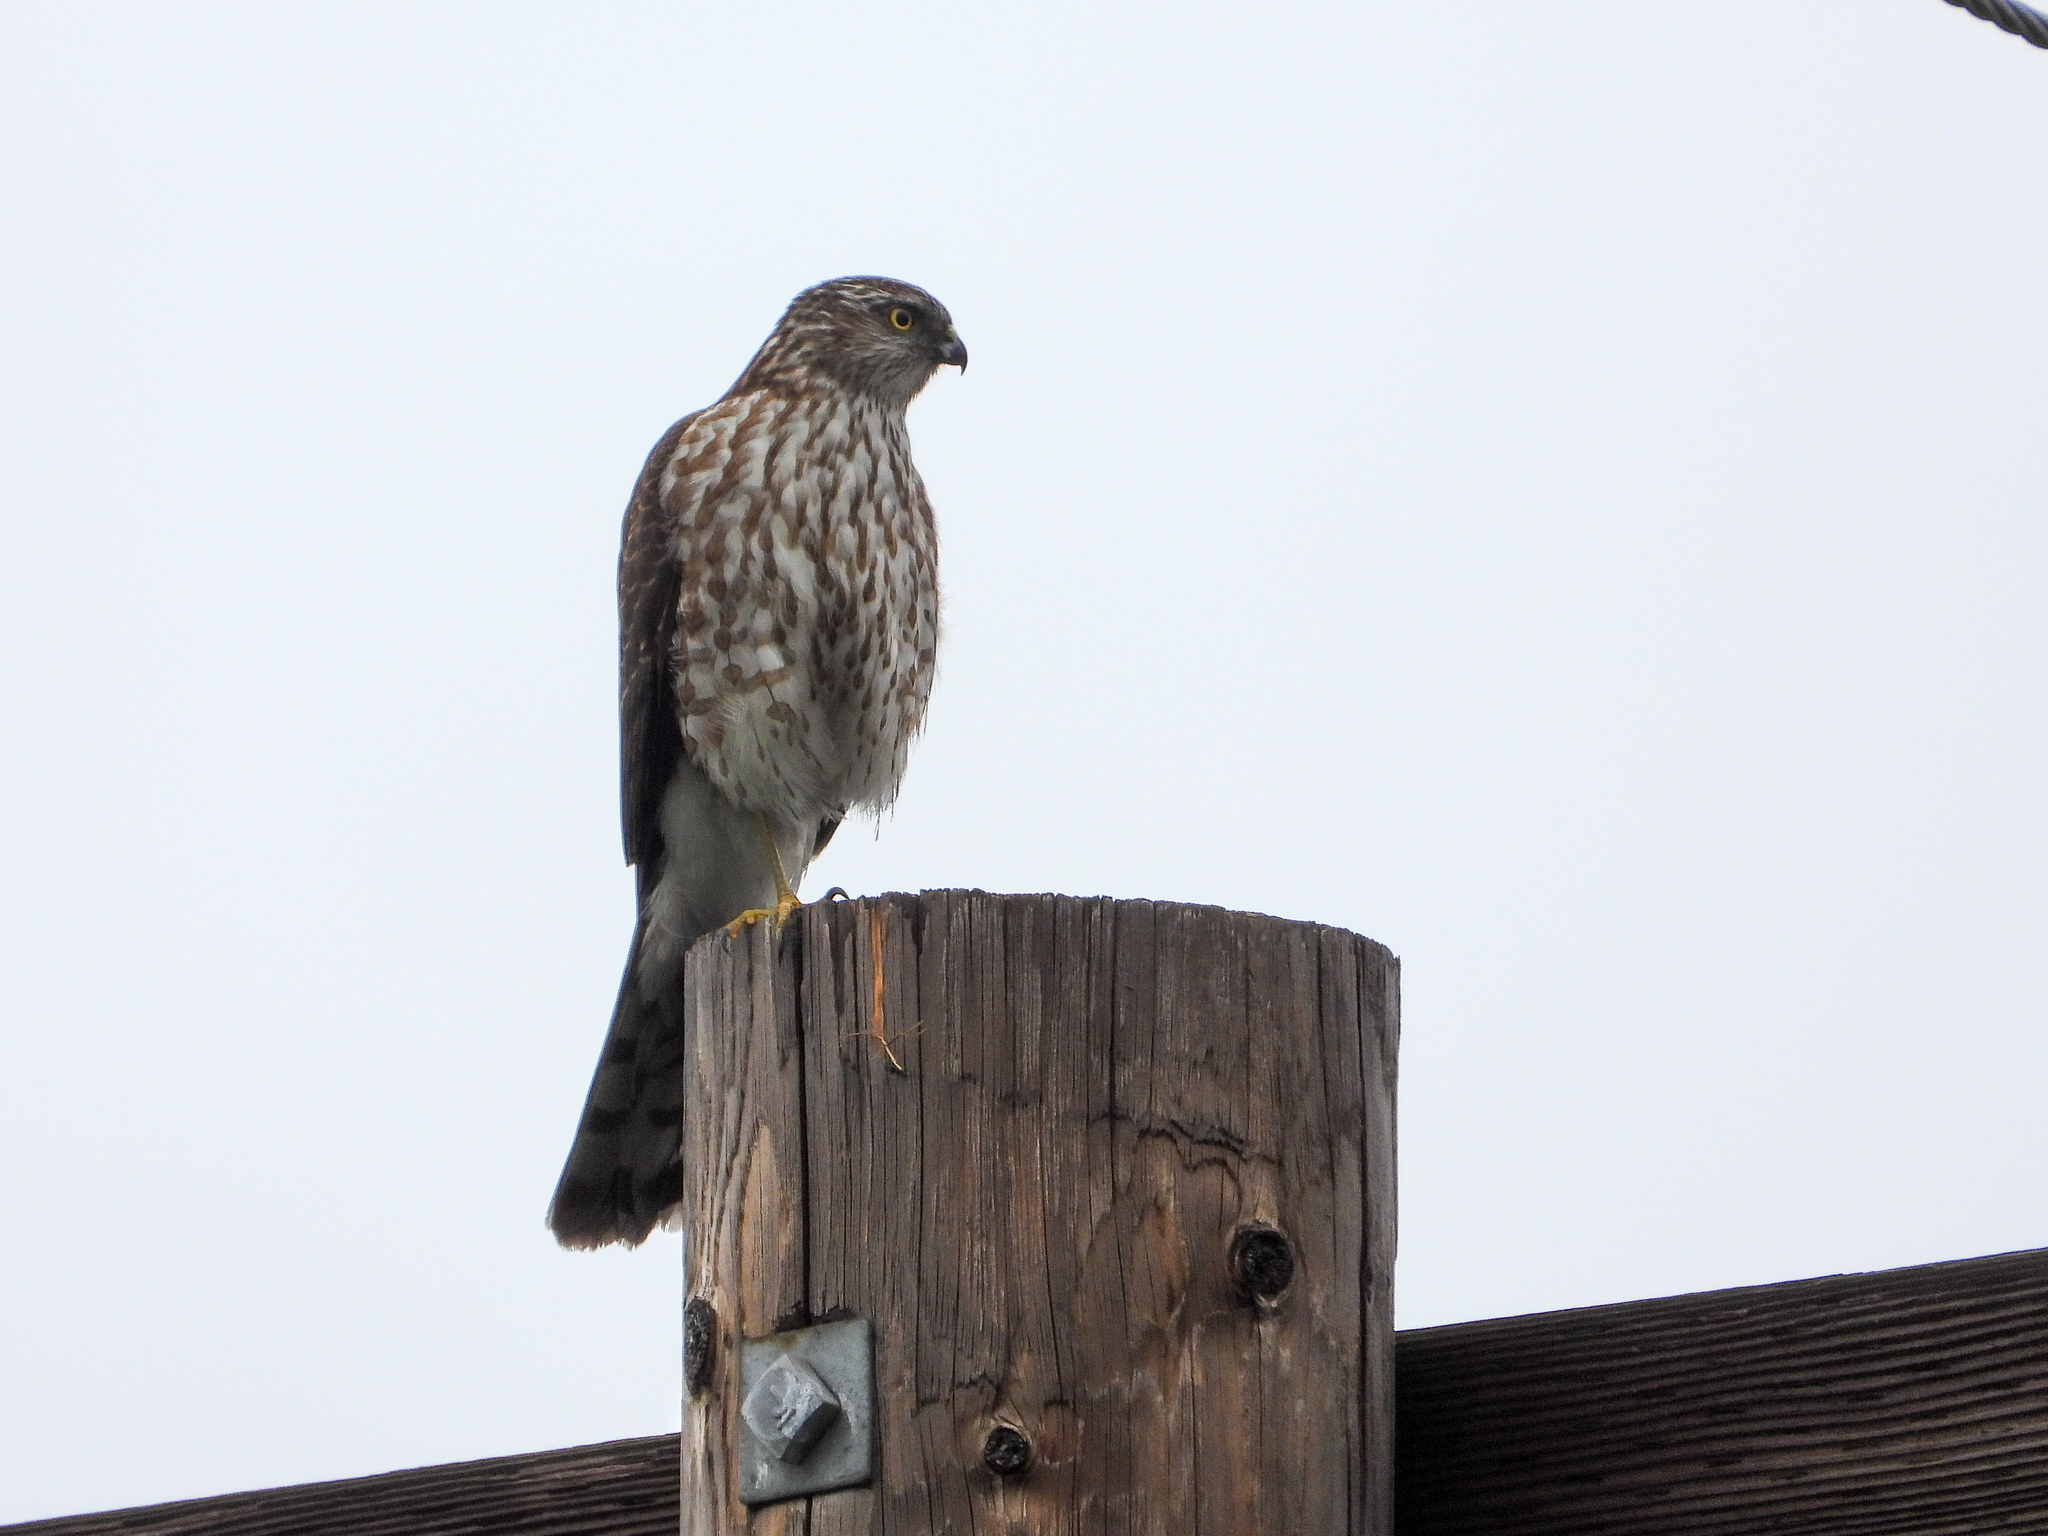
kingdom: Animalia
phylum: Chordata
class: Aves
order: Accipitriformes
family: Accipitridae
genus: Accipiter
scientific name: Accipiter striatus
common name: Sharp-shinned hawk
